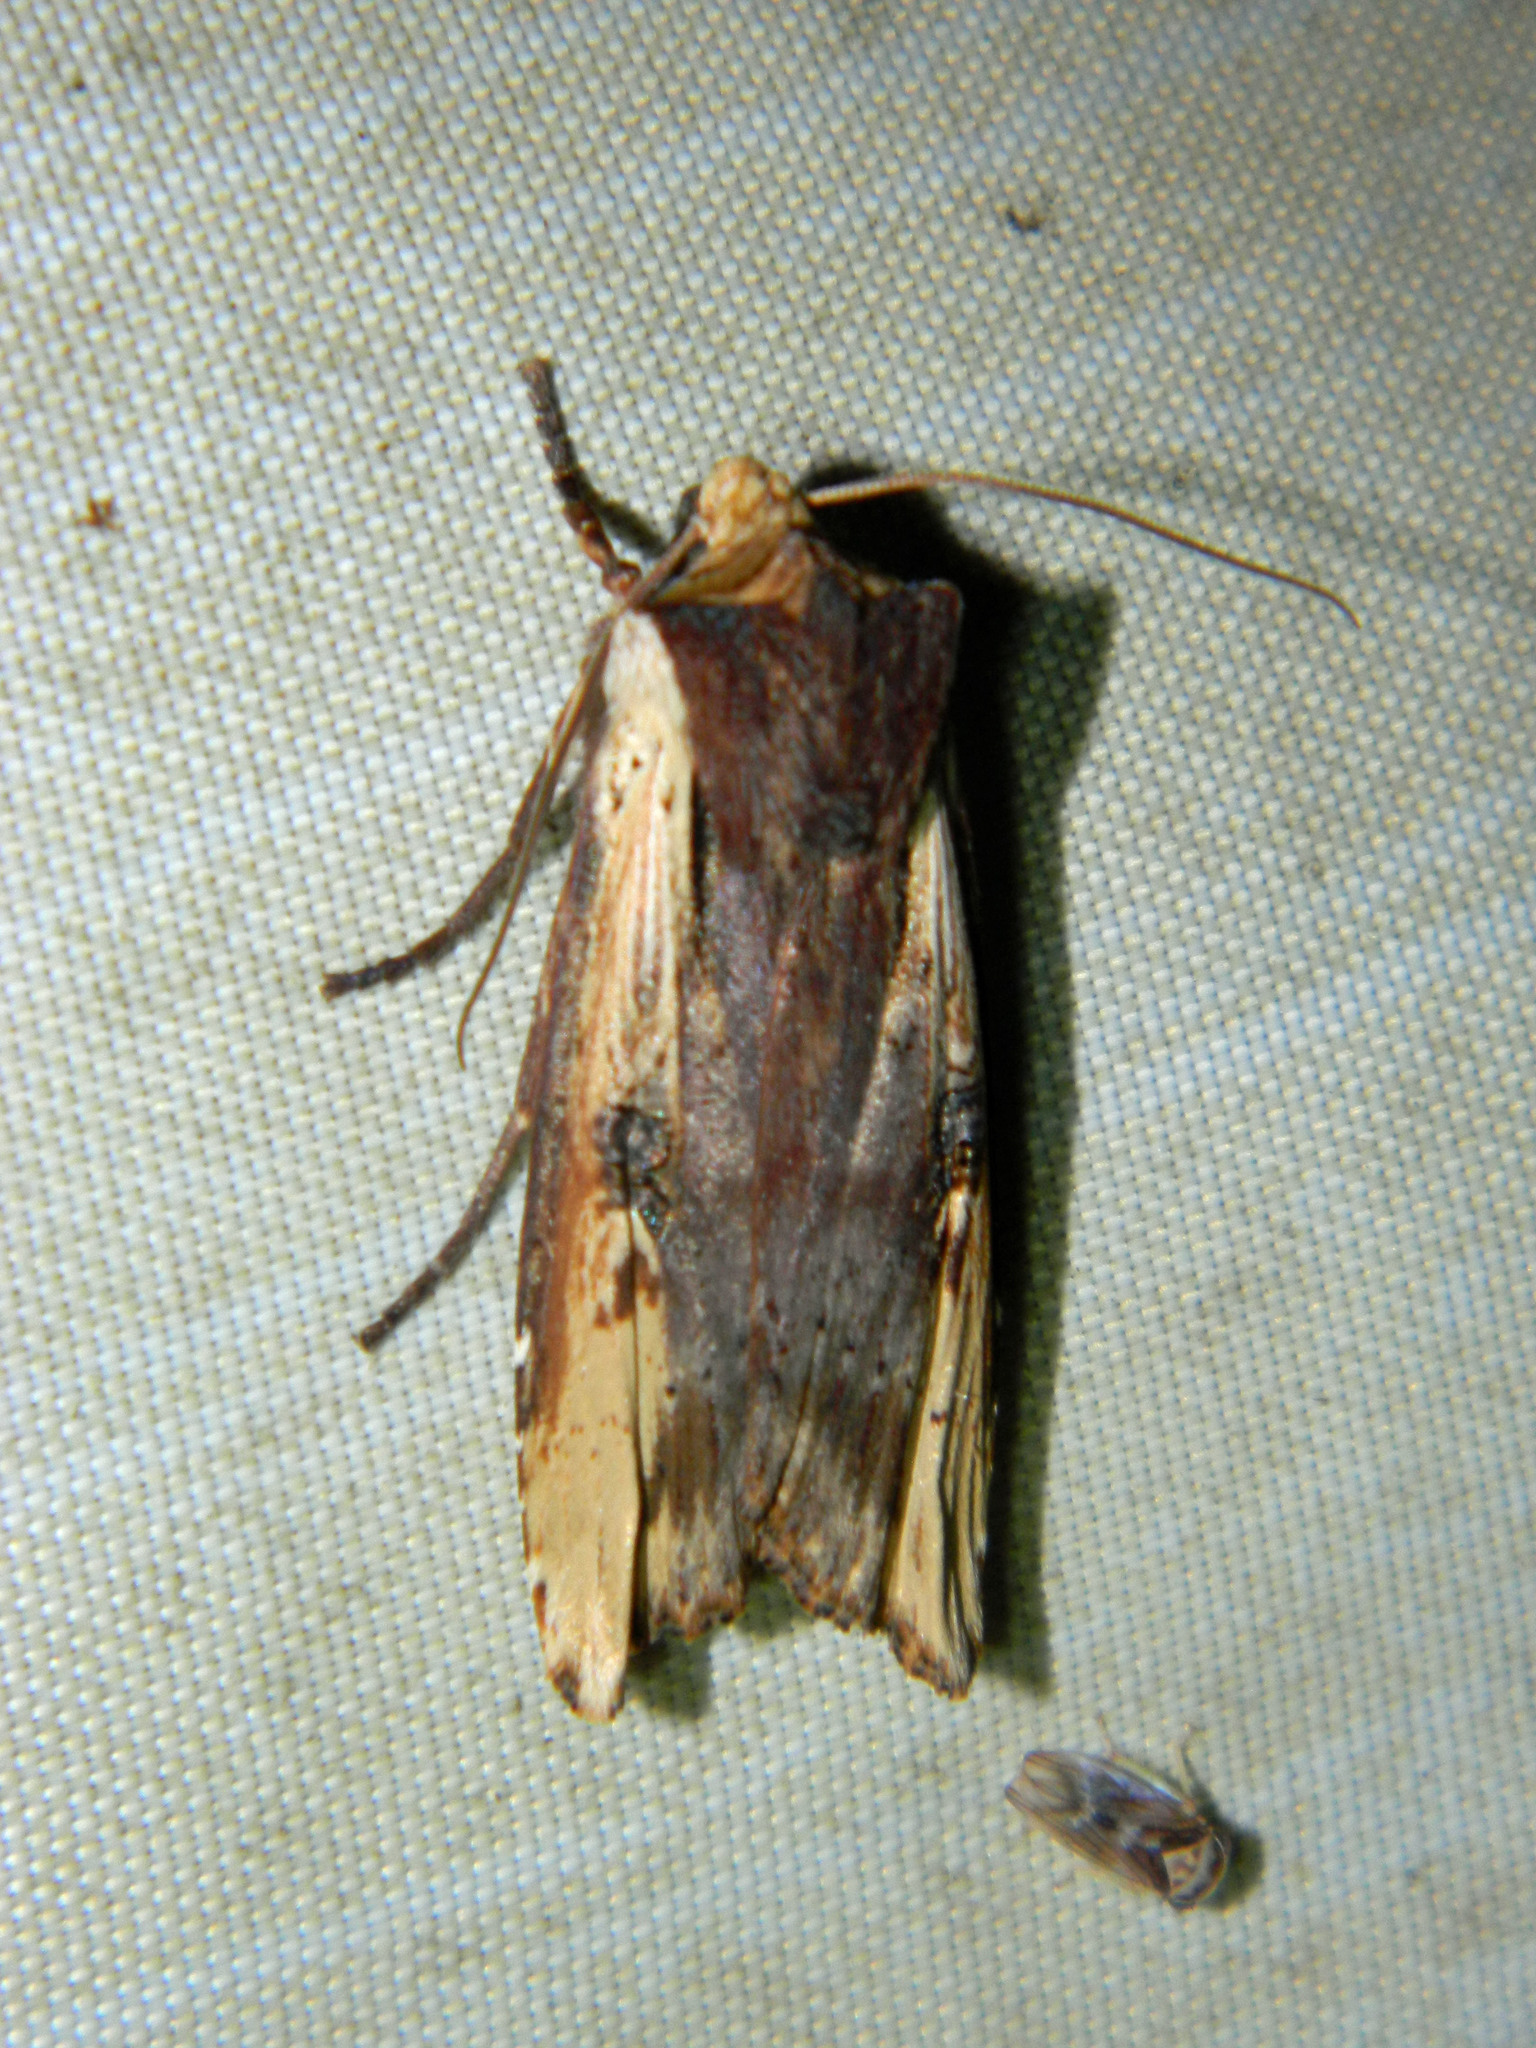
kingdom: Animalia
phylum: Arthropoda
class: Insecta
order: Lepidoptera
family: Noctuidae
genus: Xylena
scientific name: Xylena curvimacula
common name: Dot-and-dash swordgrass moth
